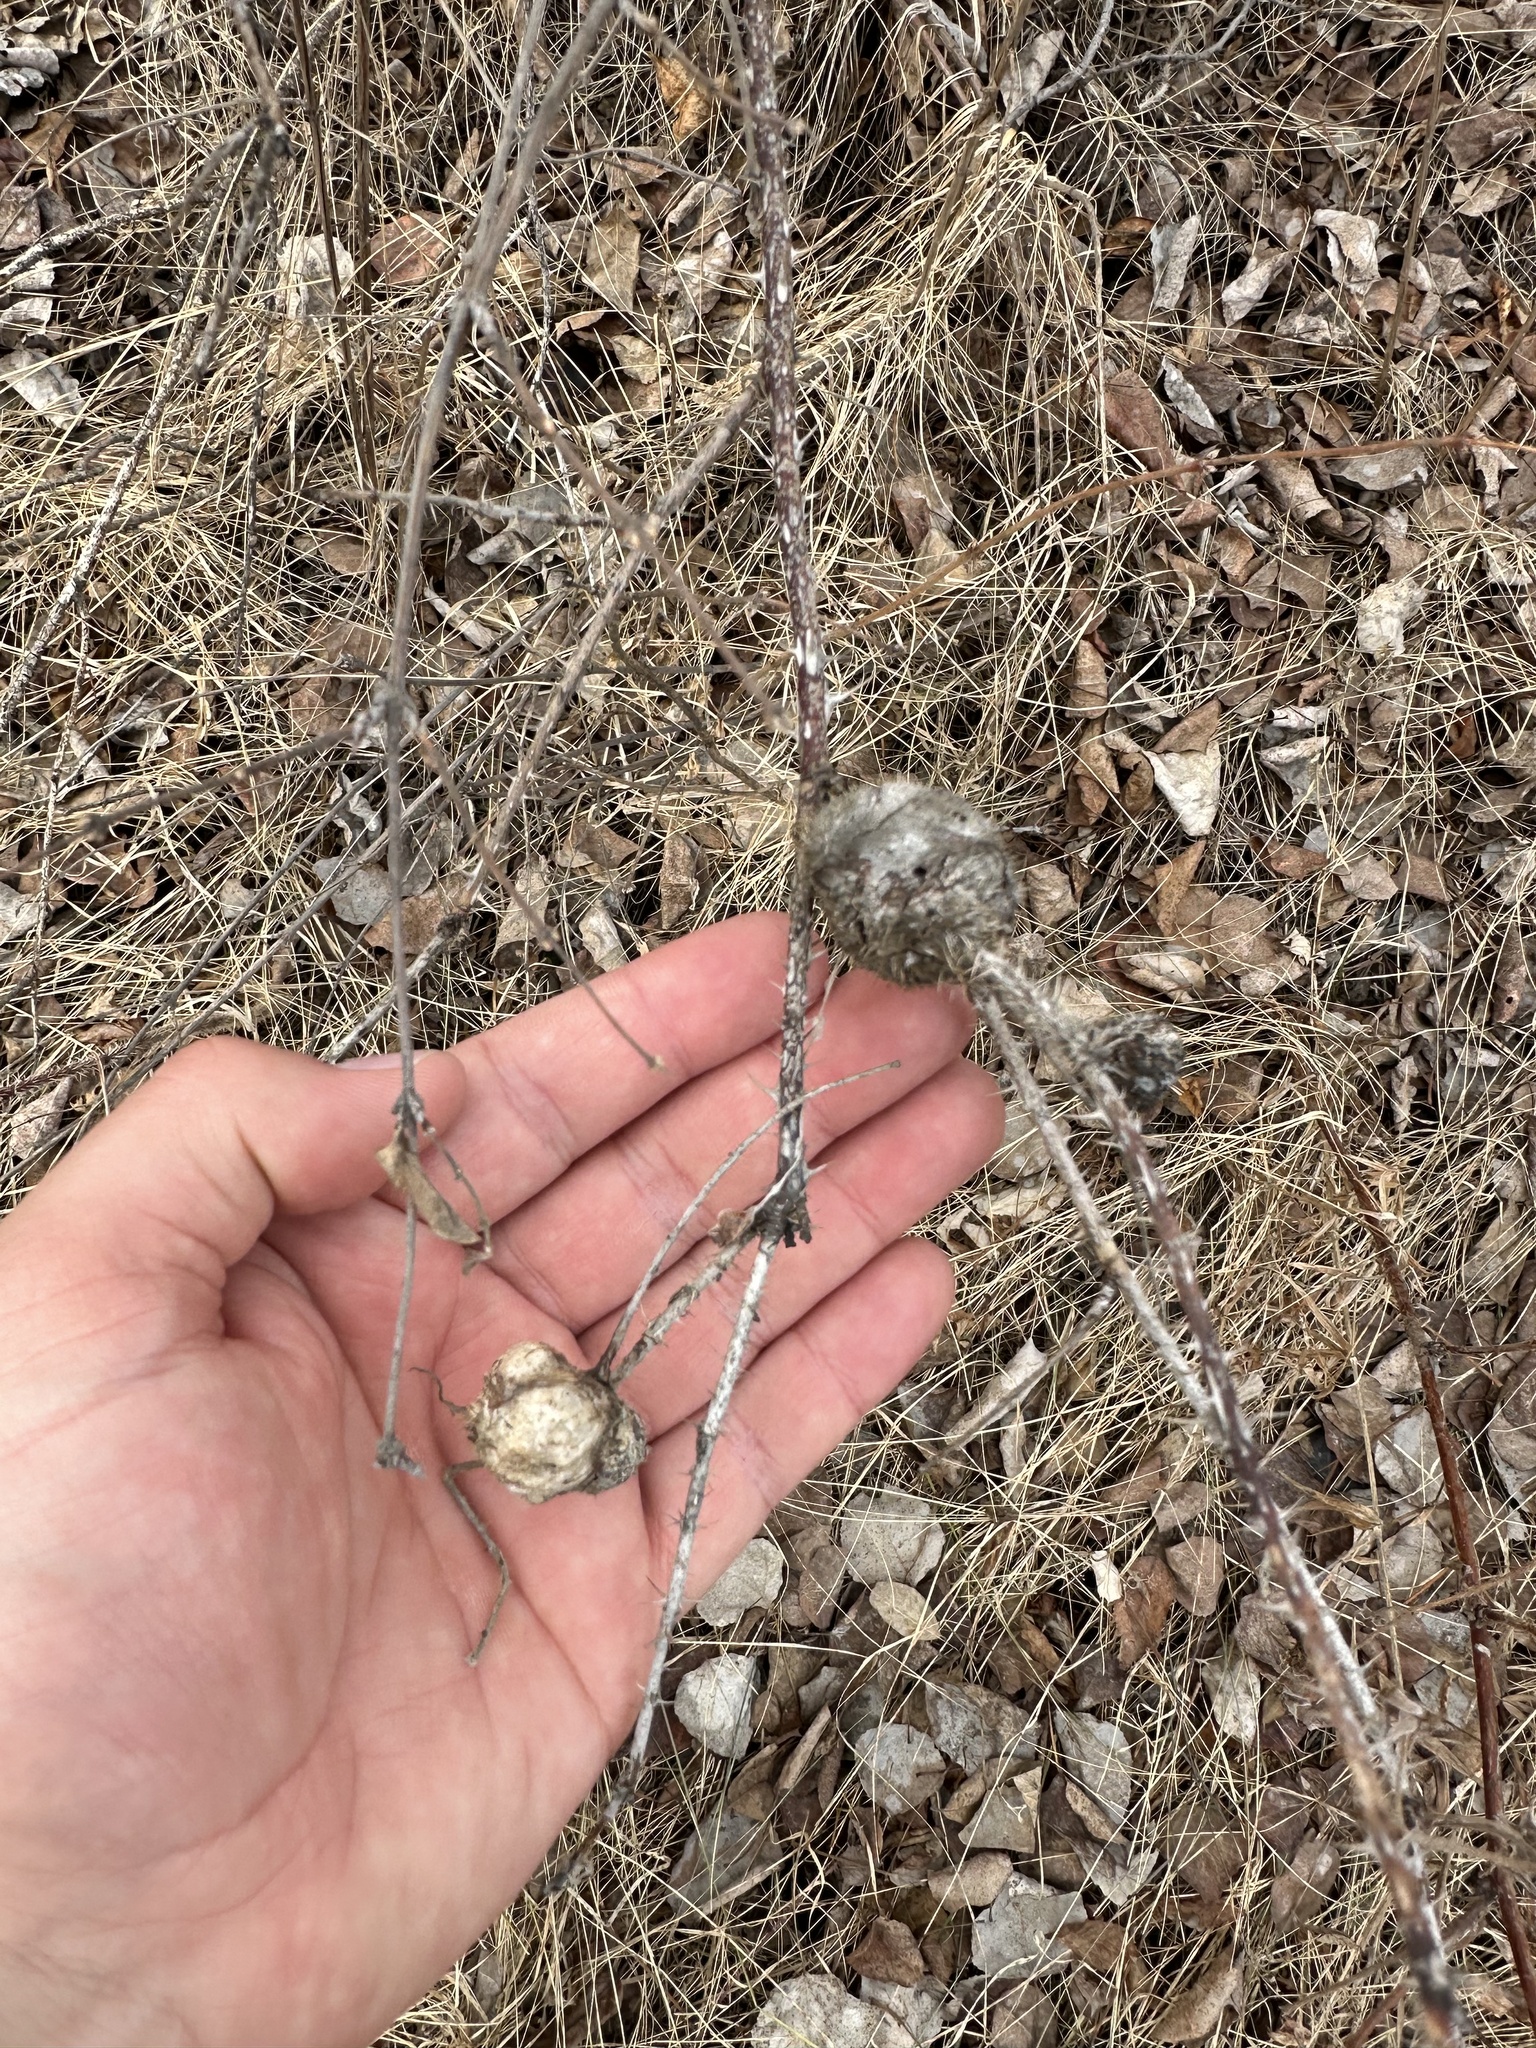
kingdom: Animalia
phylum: Arthropoda
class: Insecta
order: Hymenoptera
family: Cynipidae
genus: Diplolepis
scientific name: Diplolepis spinosa
